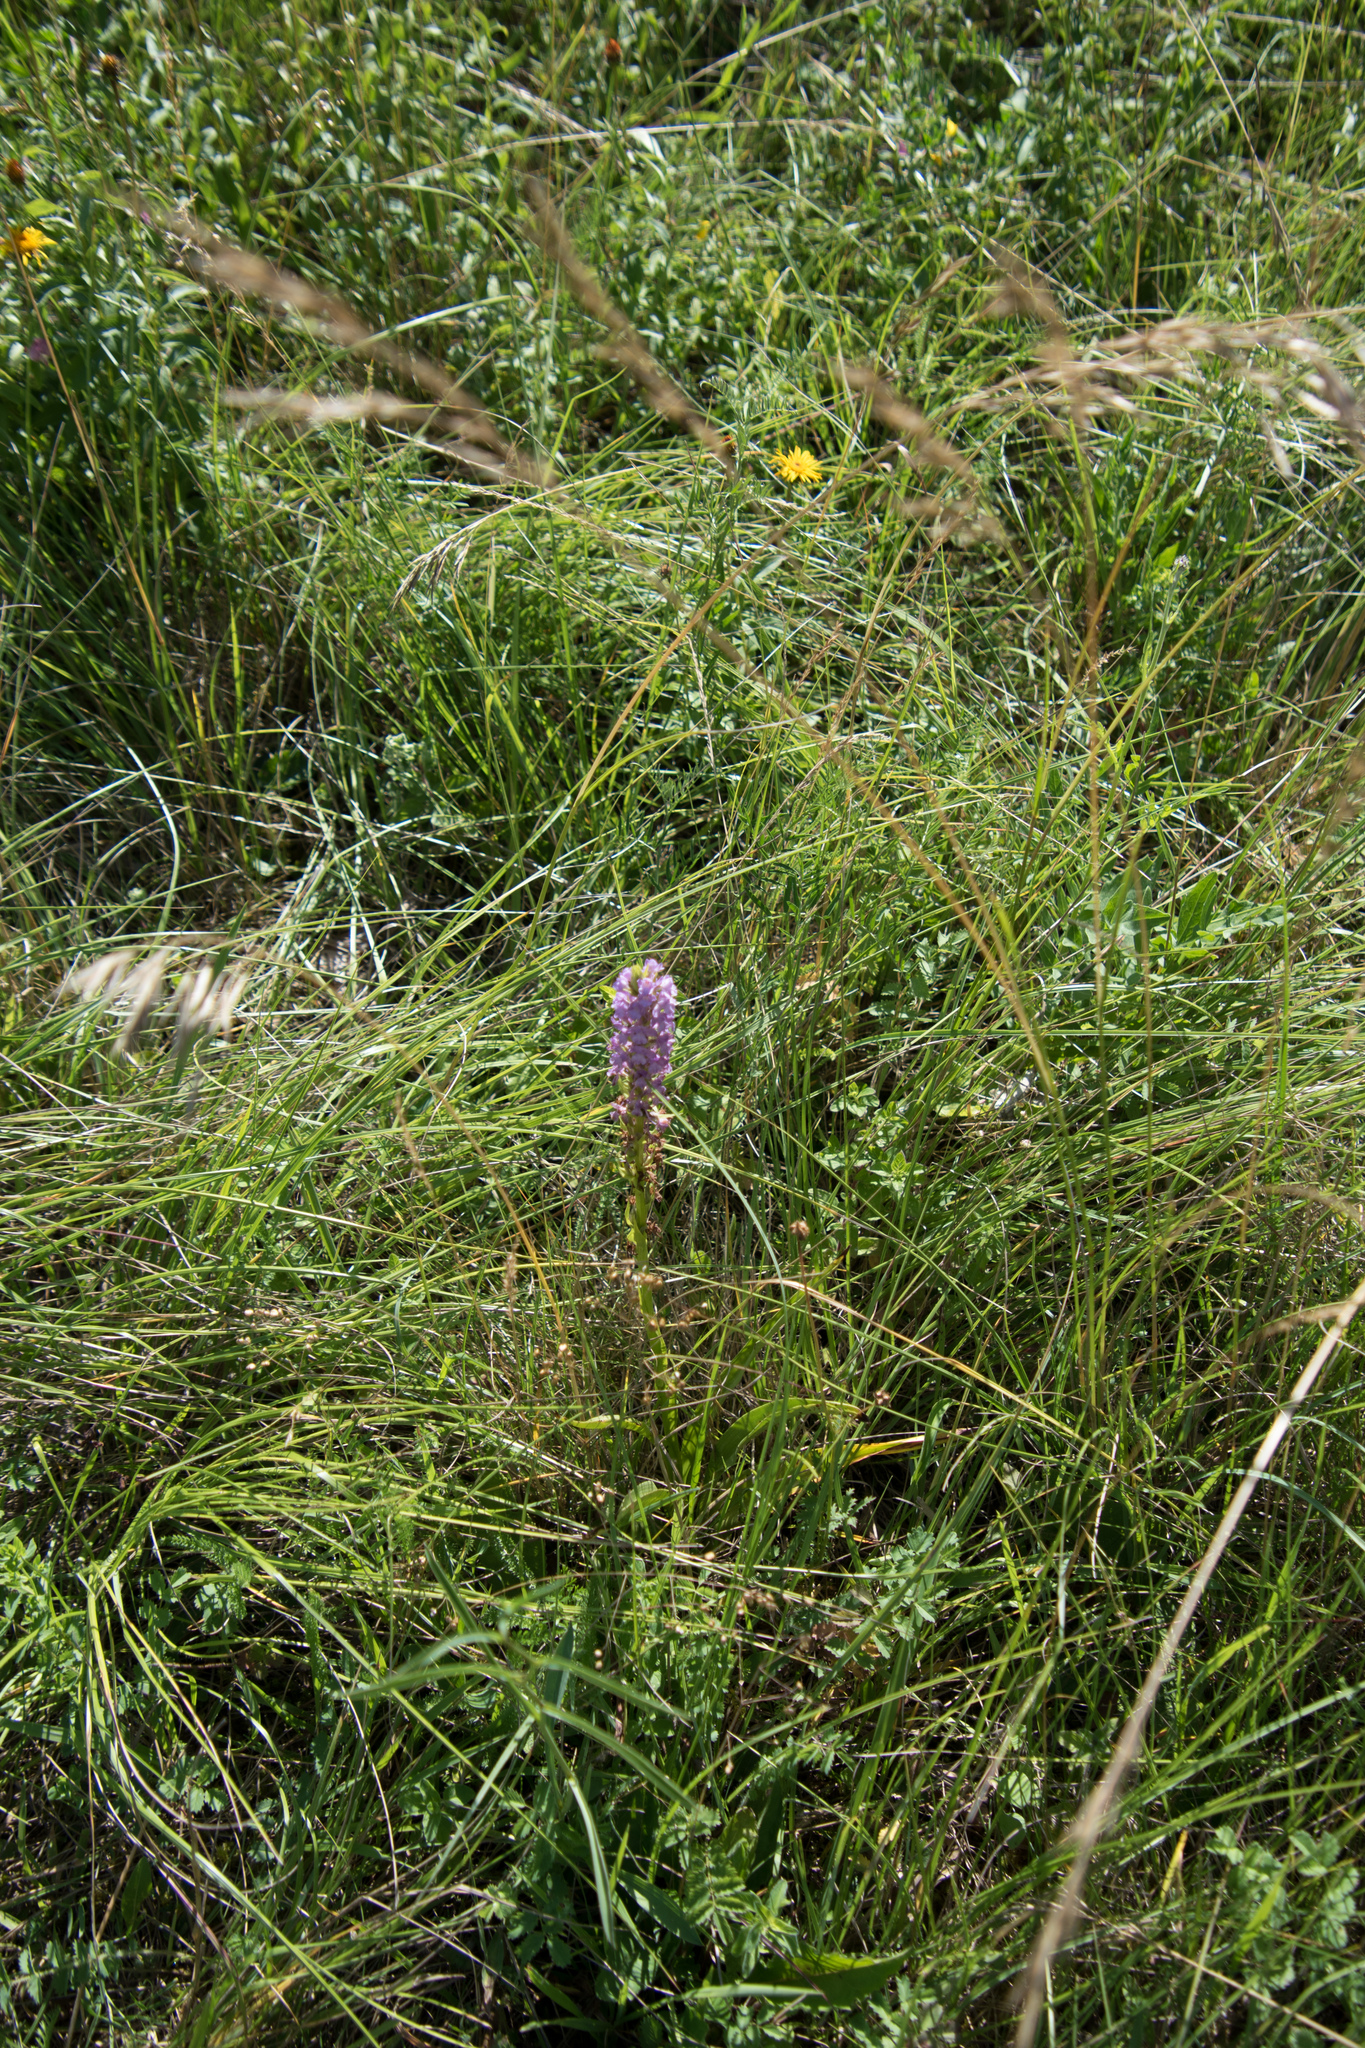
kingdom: Plantae
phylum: Tracheophyta
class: Liliopsida
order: Asparagales
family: Orchidaceae
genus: Gymnadenia
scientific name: Gymnadenia conopsea
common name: Fragrant orchid
